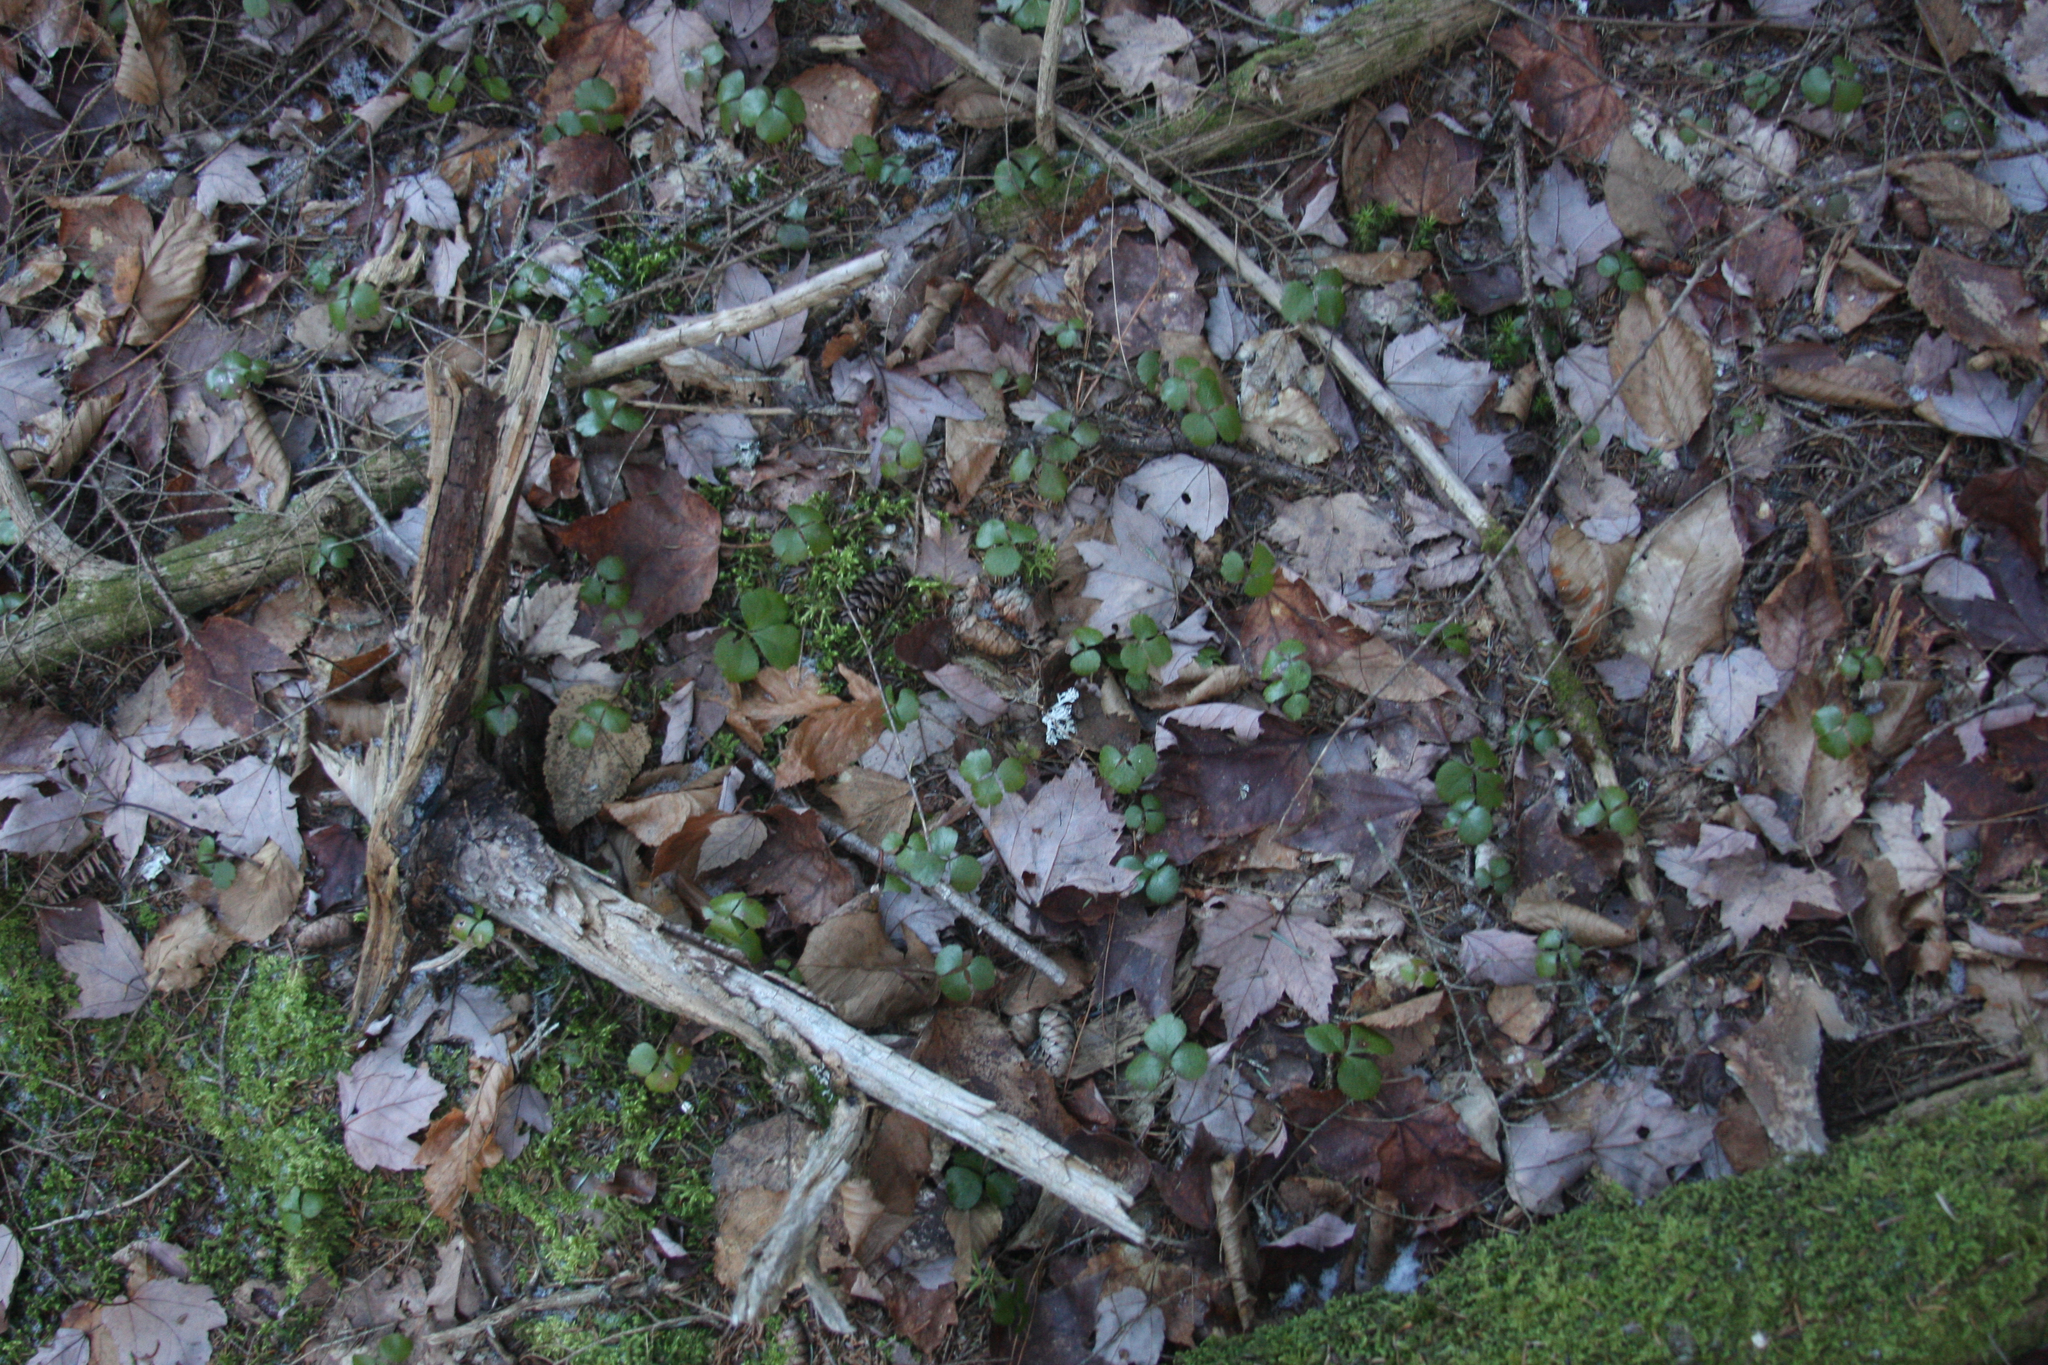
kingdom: Plantae
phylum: Tracheophyta
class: Magnoliopsida
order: Ranunculales
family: Ranunculaceae
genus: Coptis
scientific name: Coptis trifolia
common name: Canker-root
